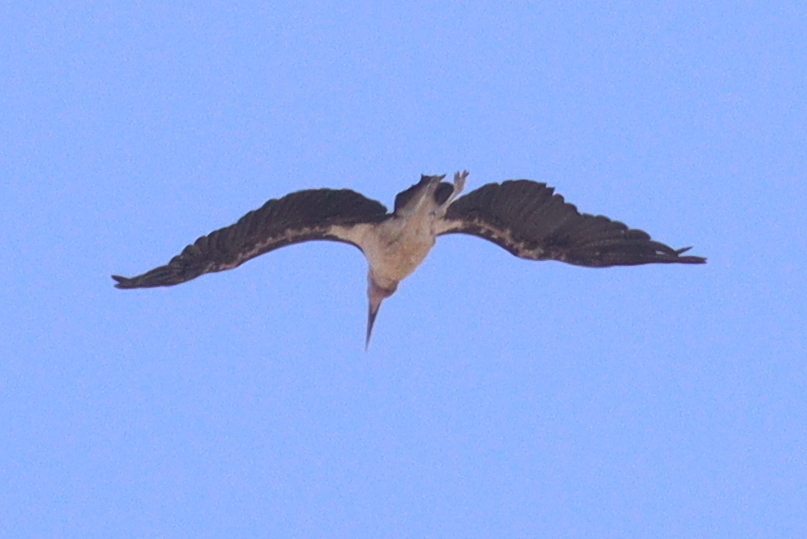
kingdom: Animalia
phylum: Chordata
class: Aves
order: Ciconiiformes
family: Ciconiidae
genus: Leptoptilos
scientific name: Leptoptilos crumenifer
